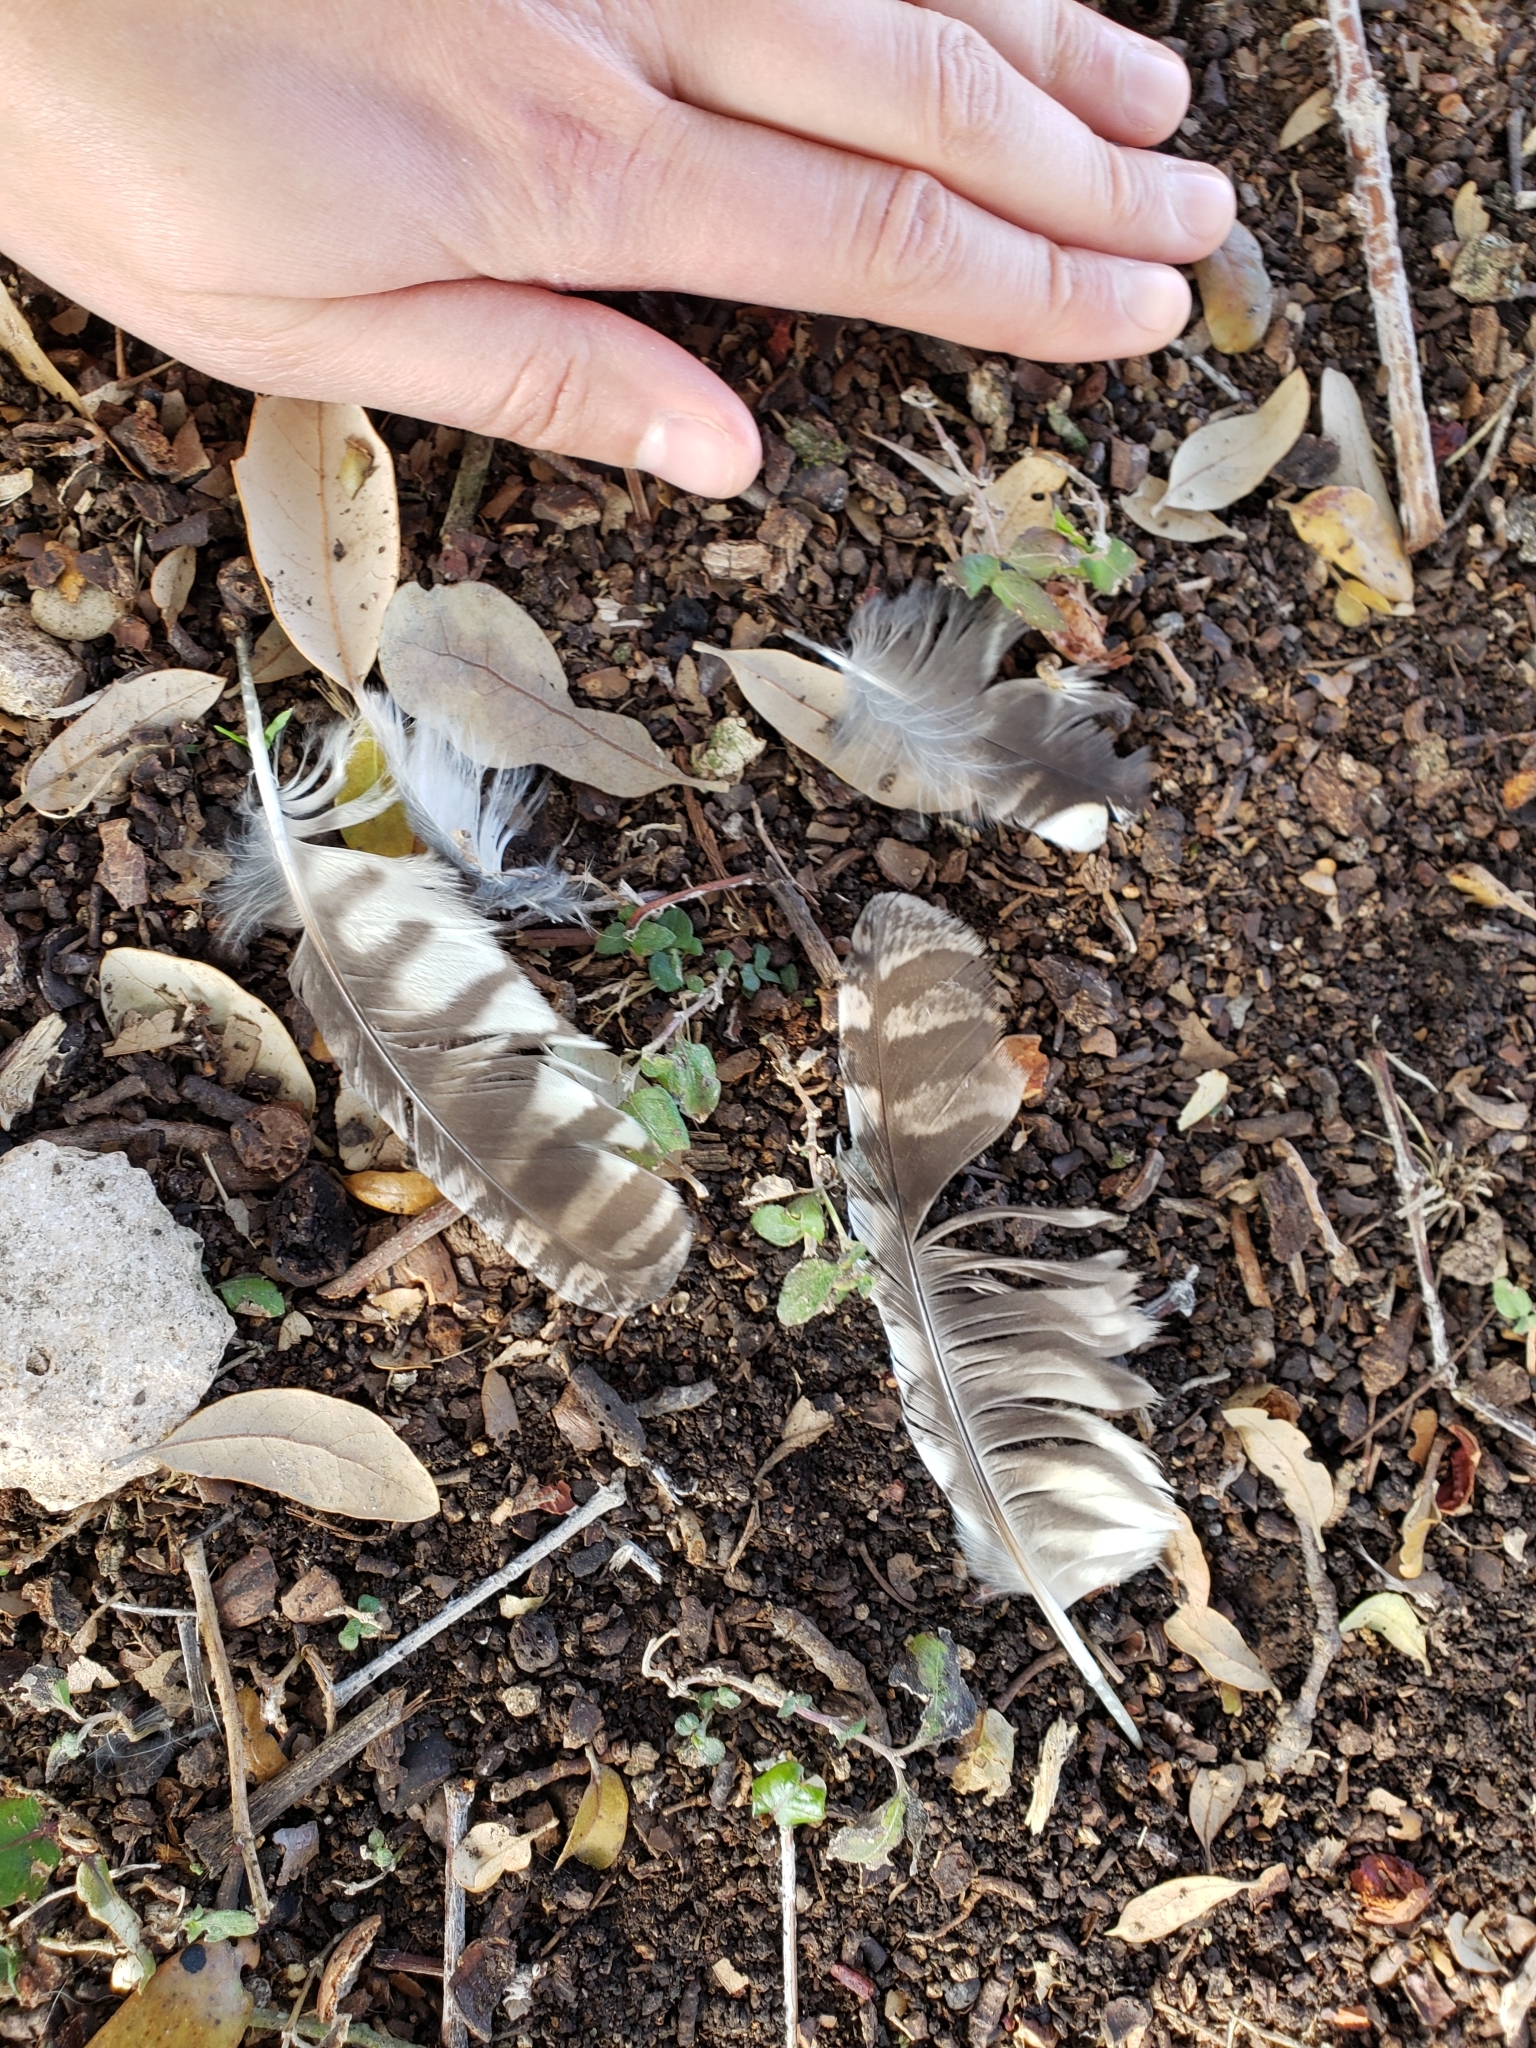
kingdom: Animalia
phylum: Chordata
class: Aves
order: Strigiformes
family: Strigidae
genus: Megascops
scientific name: Megascops asio
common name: Eastern screech-owl
